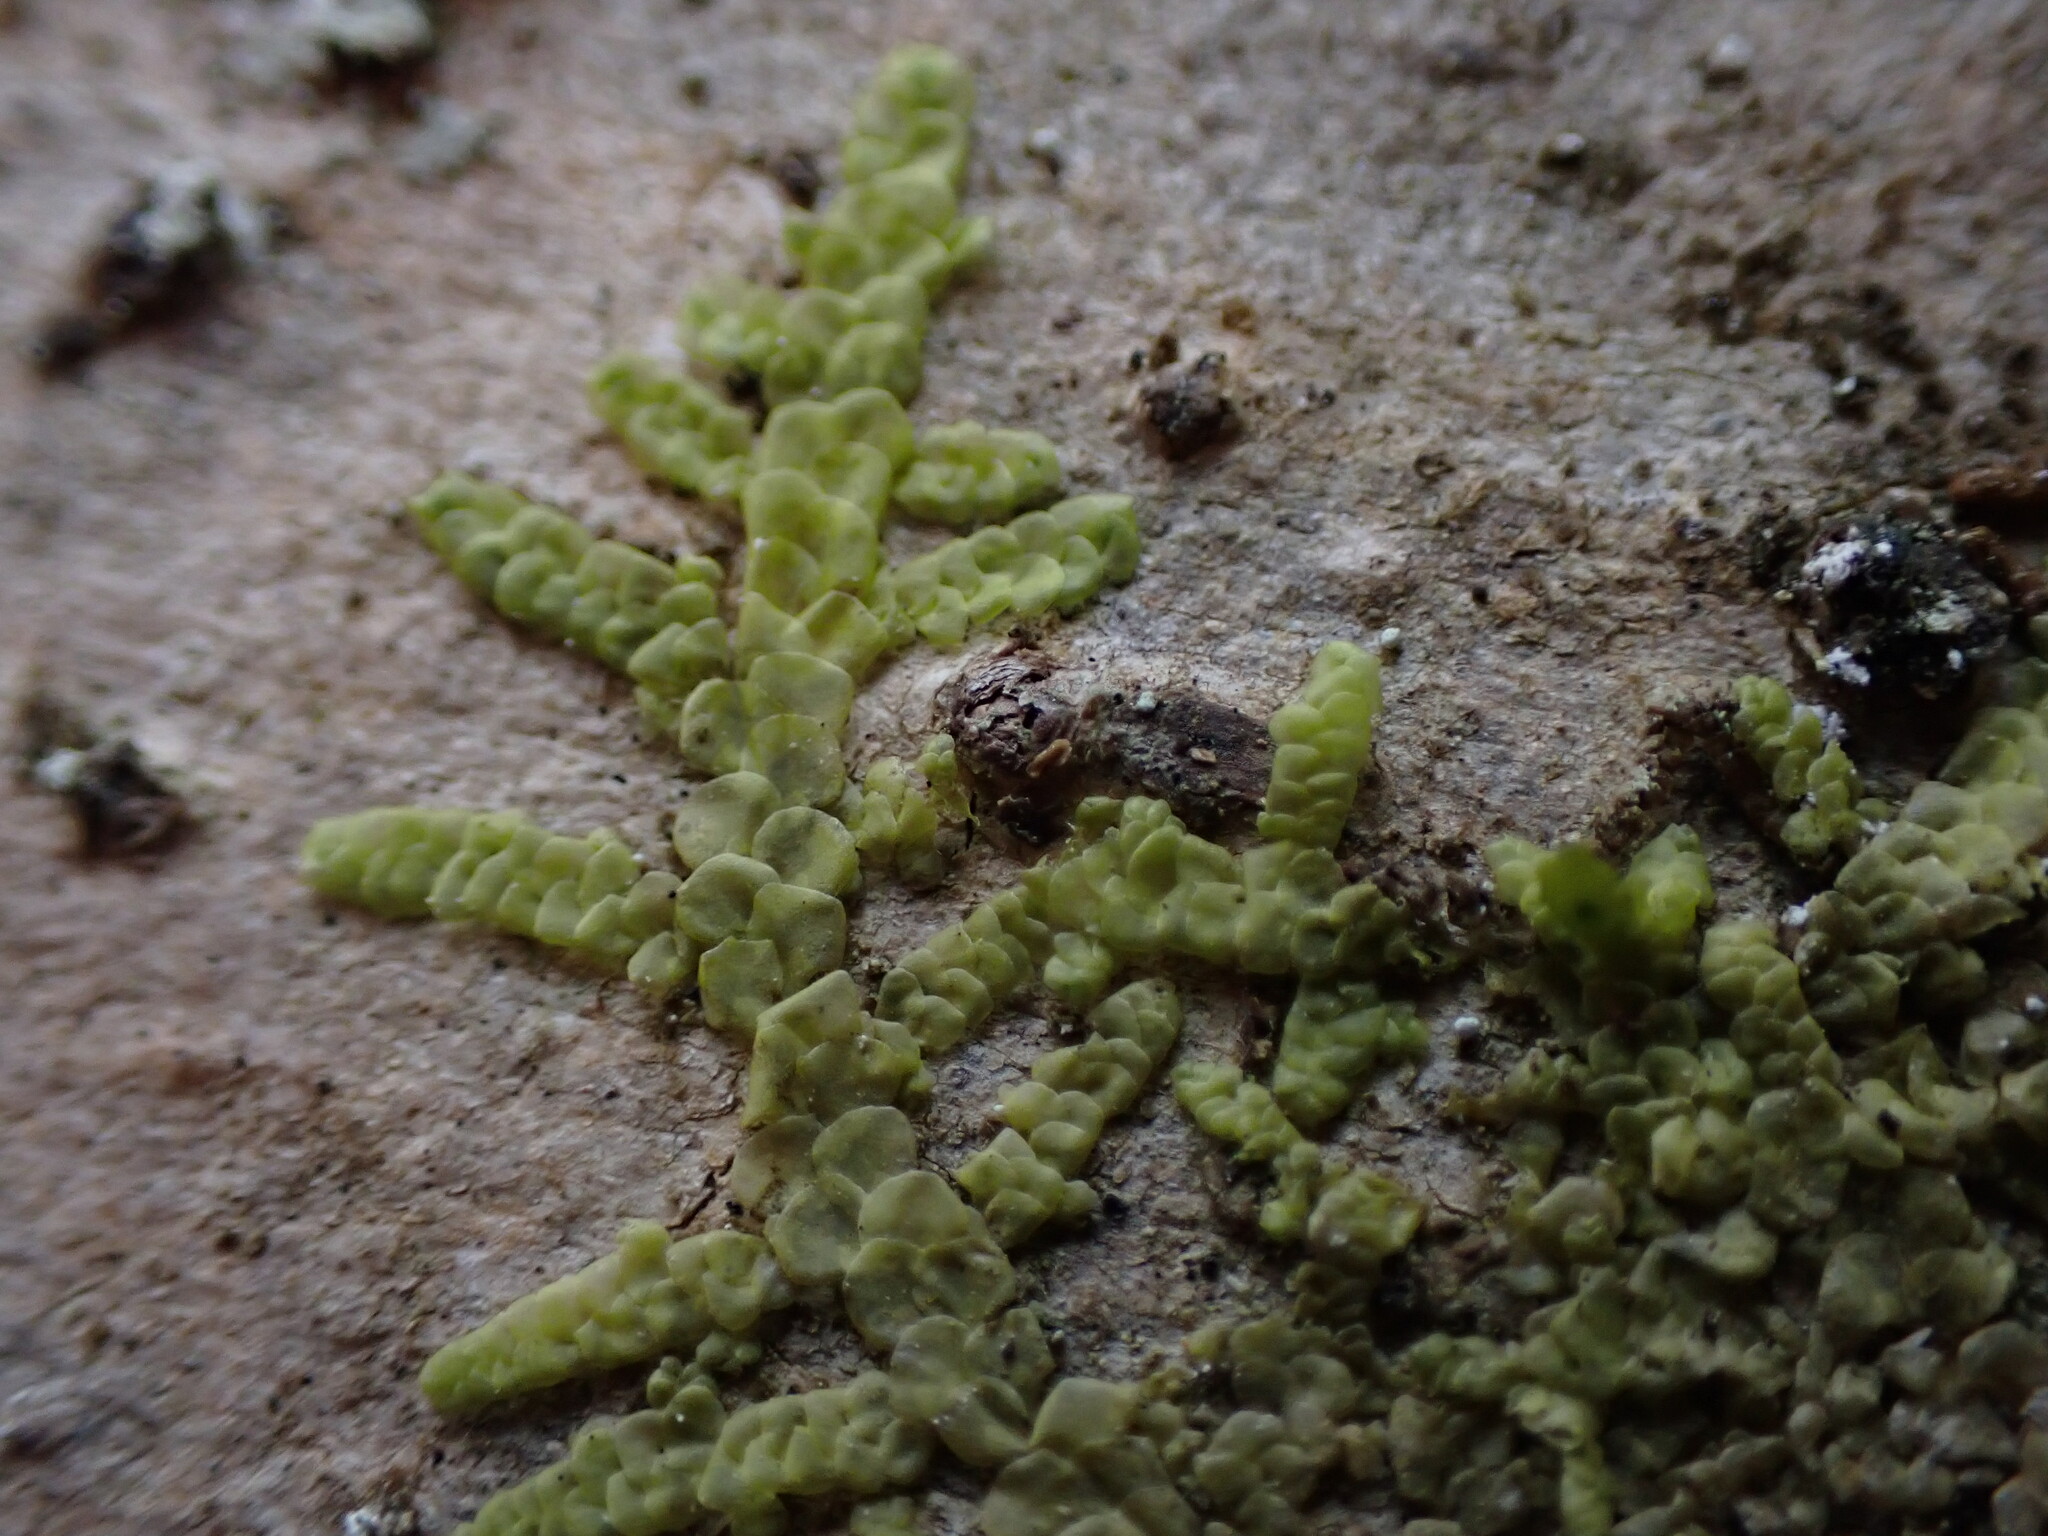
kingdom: Plantae
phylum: Marchantiophyta
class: Jungermanniopsida
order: Porellales
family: Radulaceae
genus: Radula
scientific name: Radula complanata
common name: Flat-leaved scalewort
